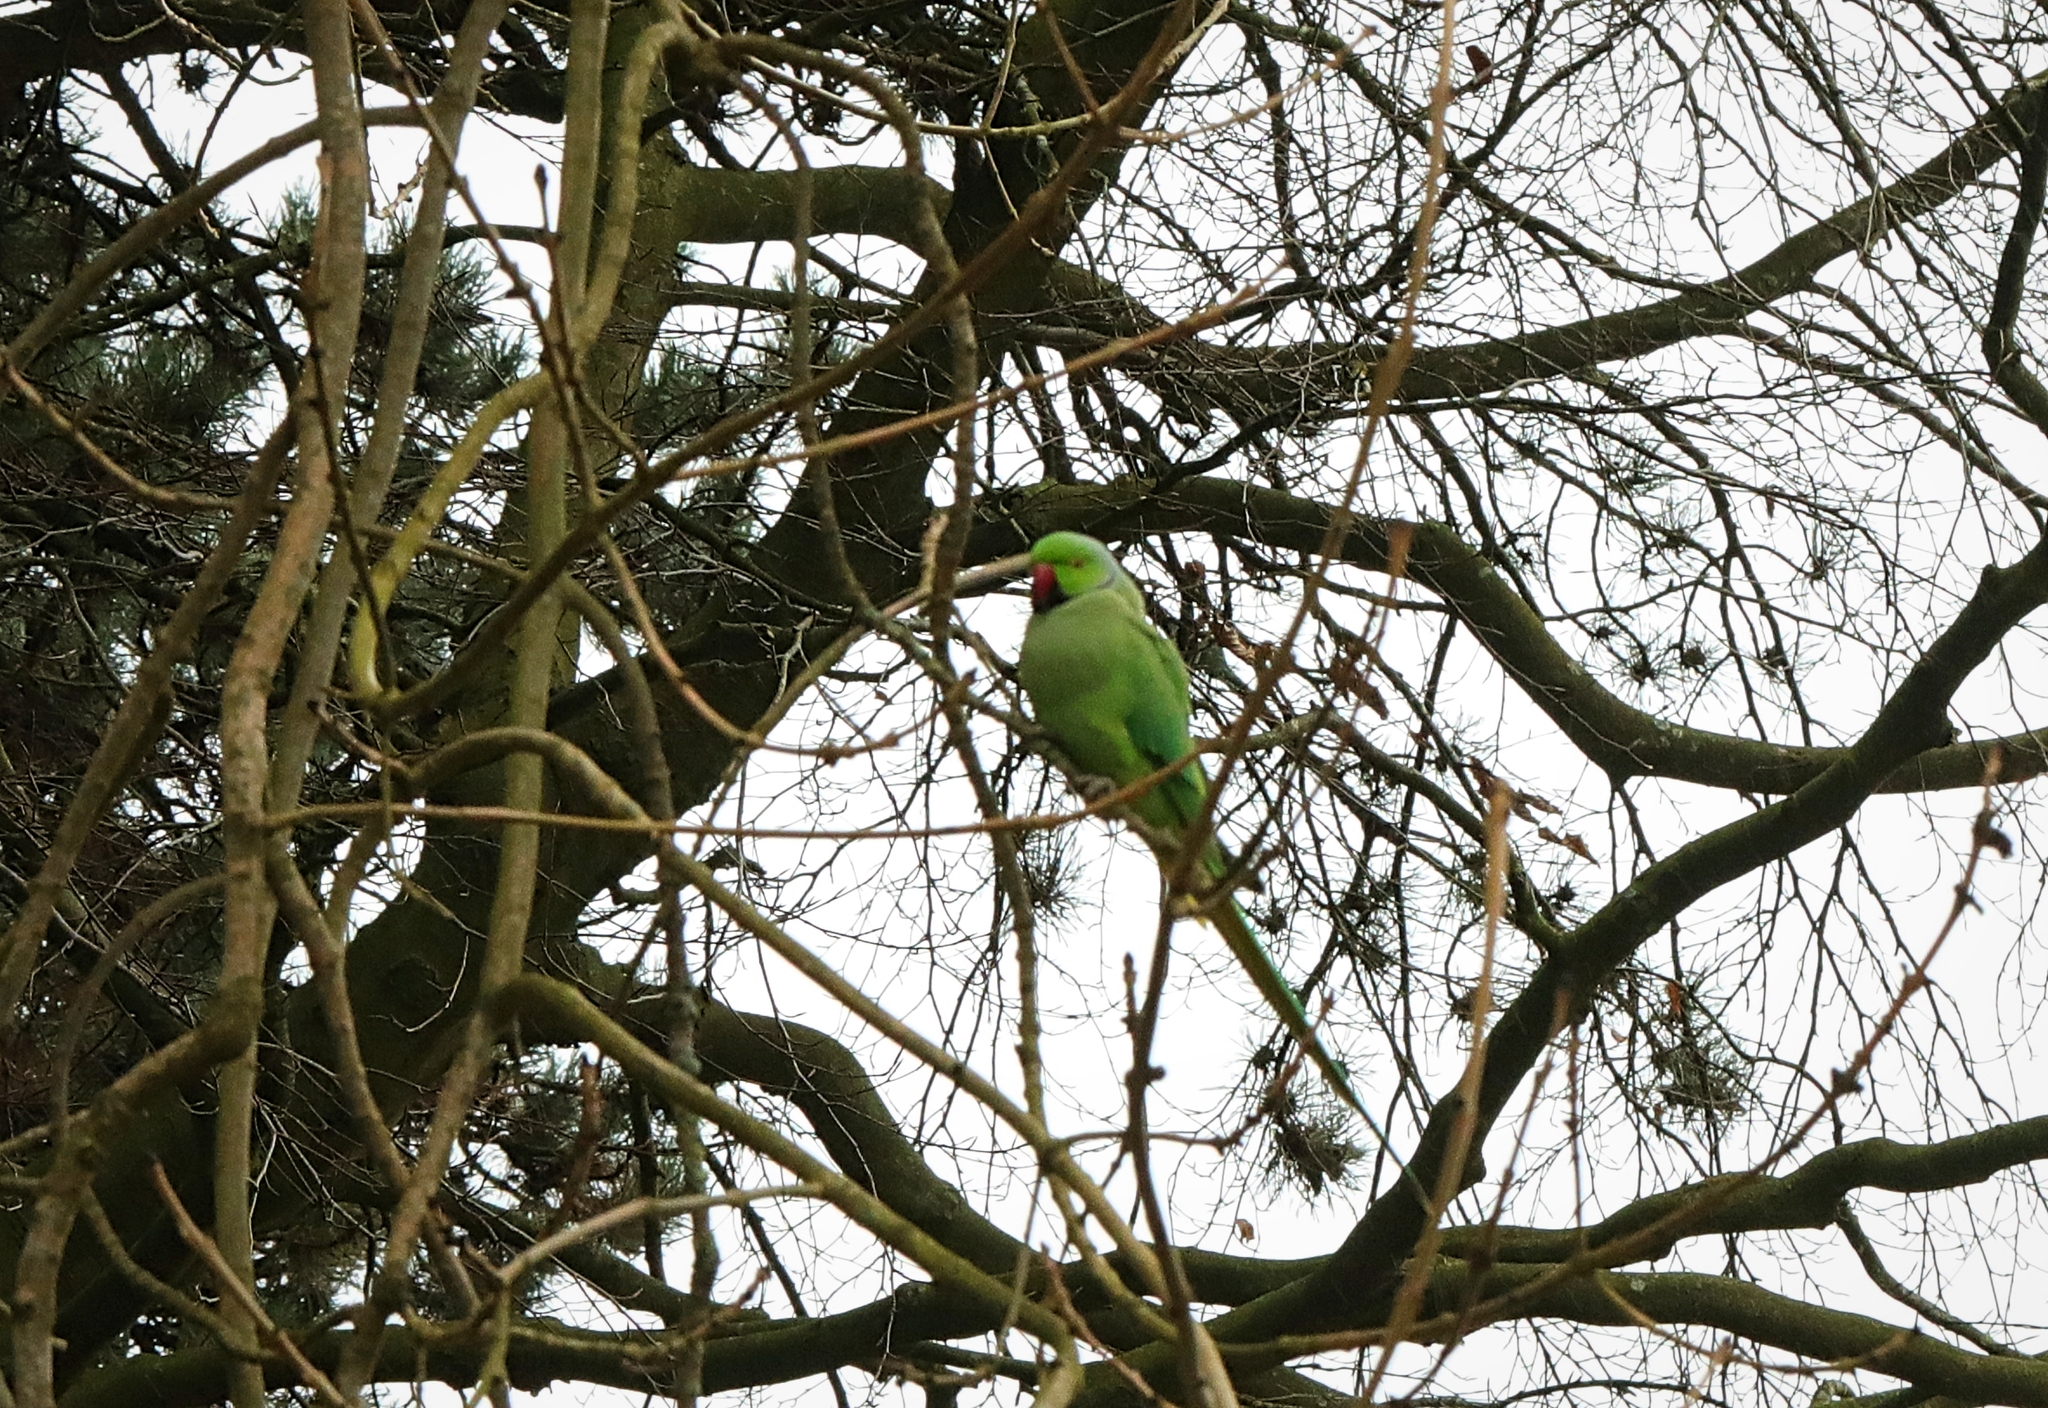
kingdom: Animalia
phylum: Chordata
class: Aves
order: Psittaciformes
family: Psittacidae
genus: Psittacula
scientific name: Psittacula krameri
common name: Rose-ringed parakeet
